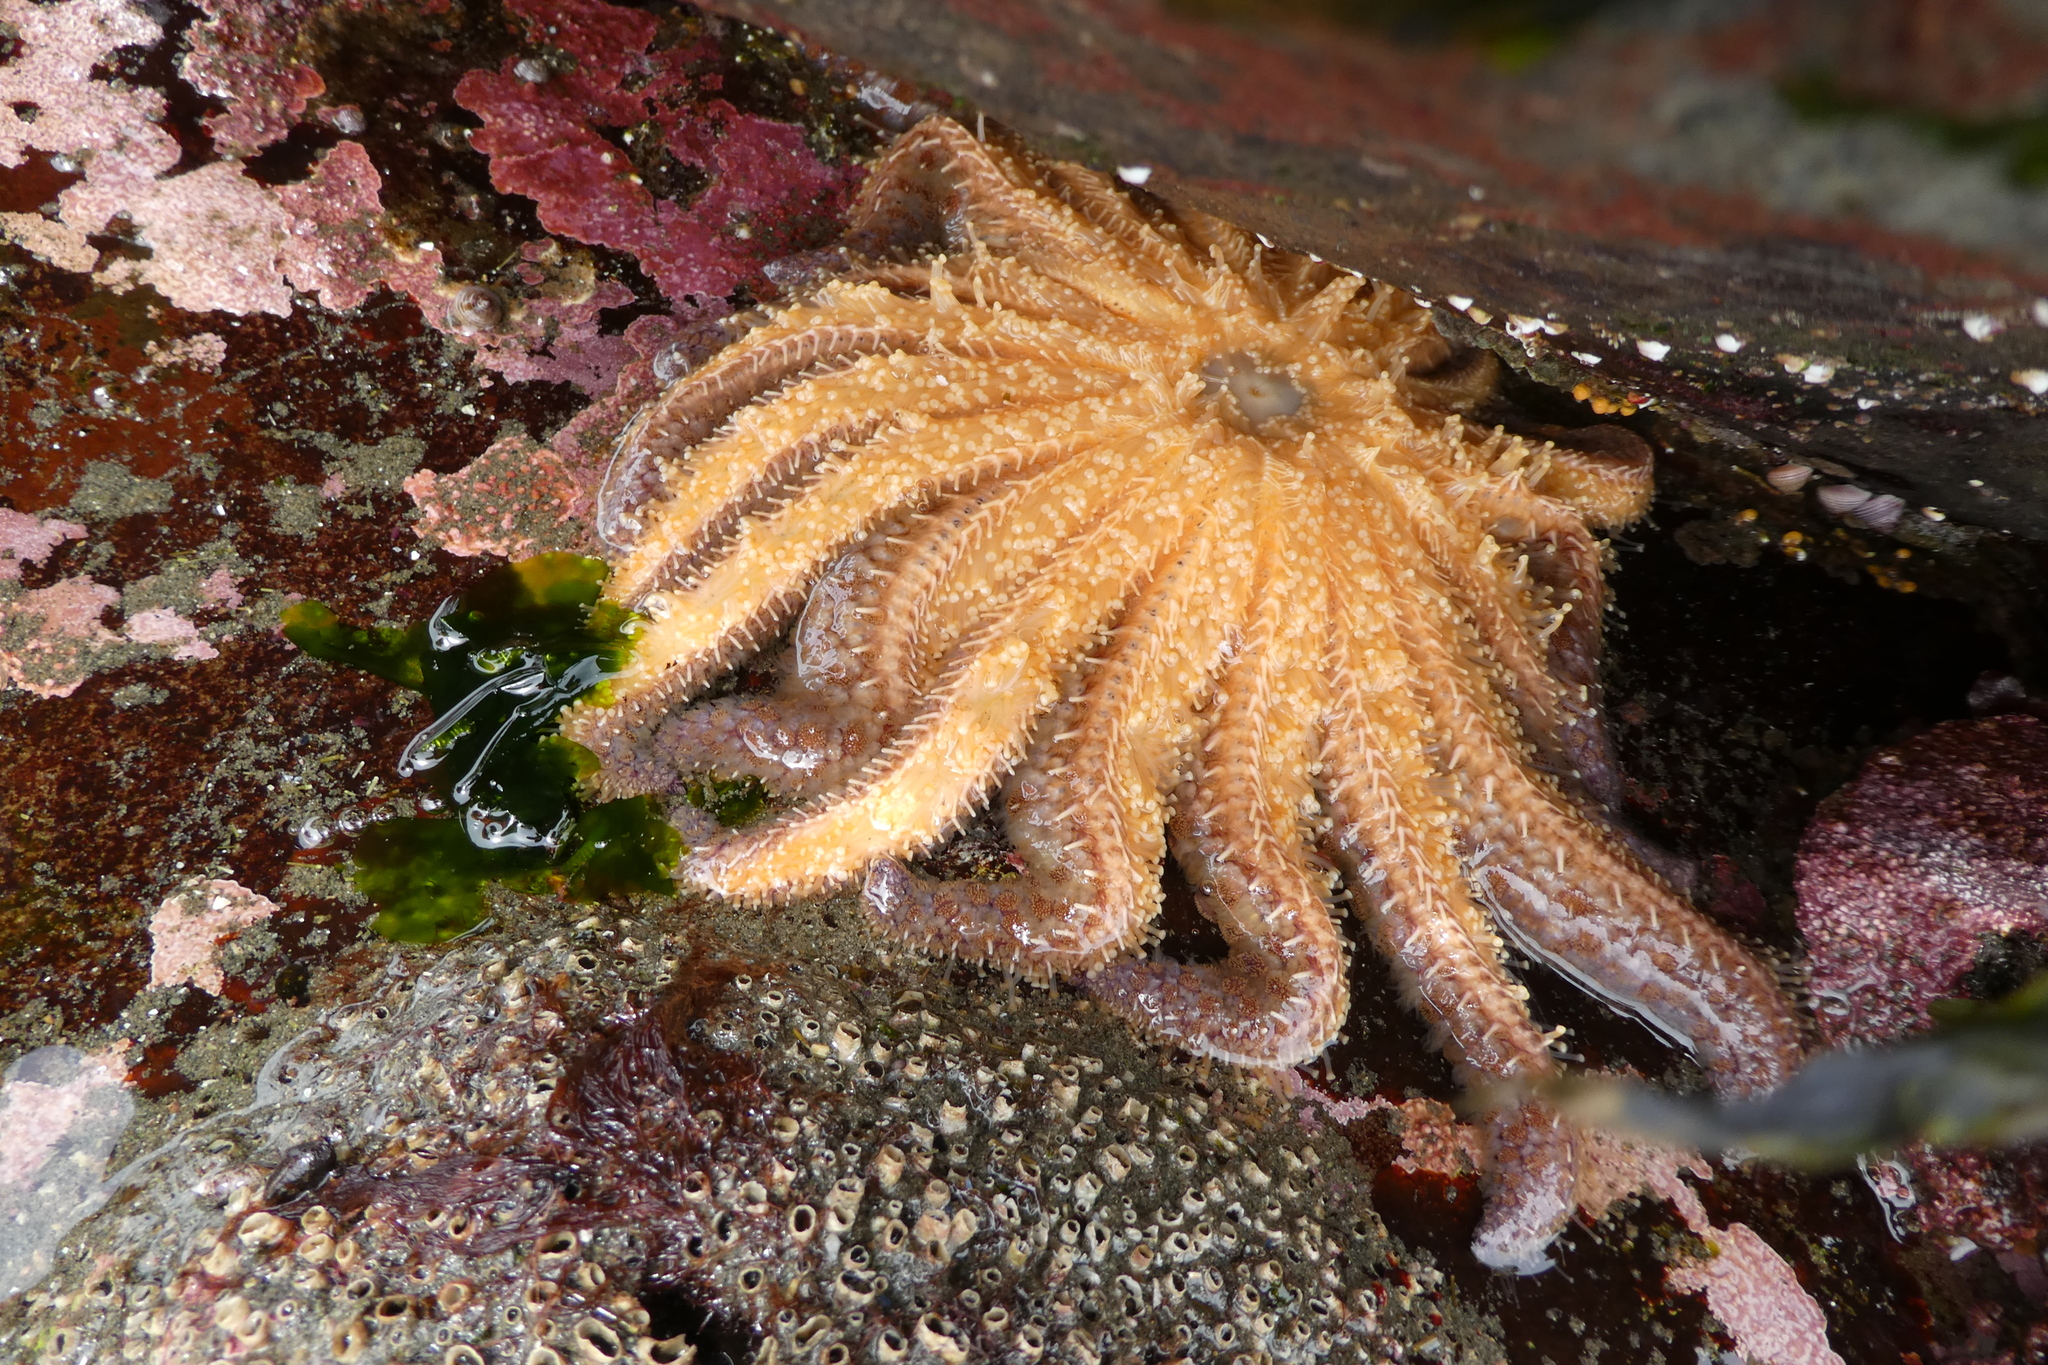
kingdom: Animalia
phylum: Echinodermata
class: Asteroidea
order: Forcipulatida
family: Asteriidae
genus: Pycnopodia
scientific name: Pycnopodia helianthoides
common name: Rag mop
